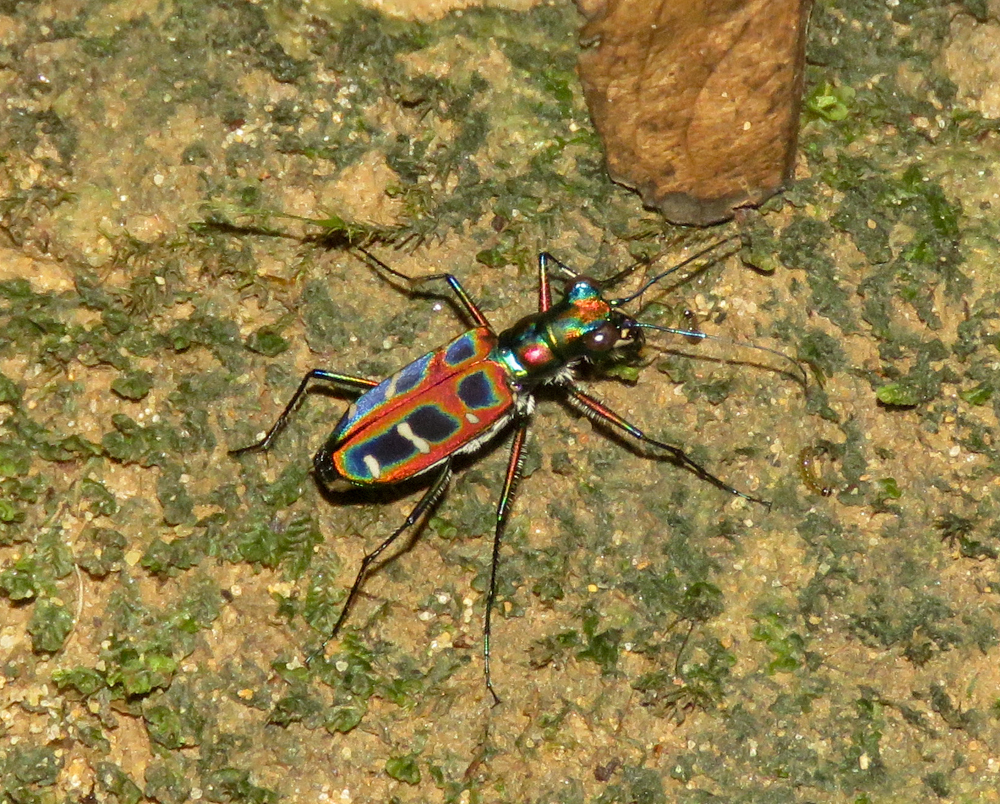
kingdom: Animalia
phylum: Arthropoda
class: Insecta
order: Coleoptera
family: Carabidae
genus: Cicindela
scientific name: Cicindela barmanica
